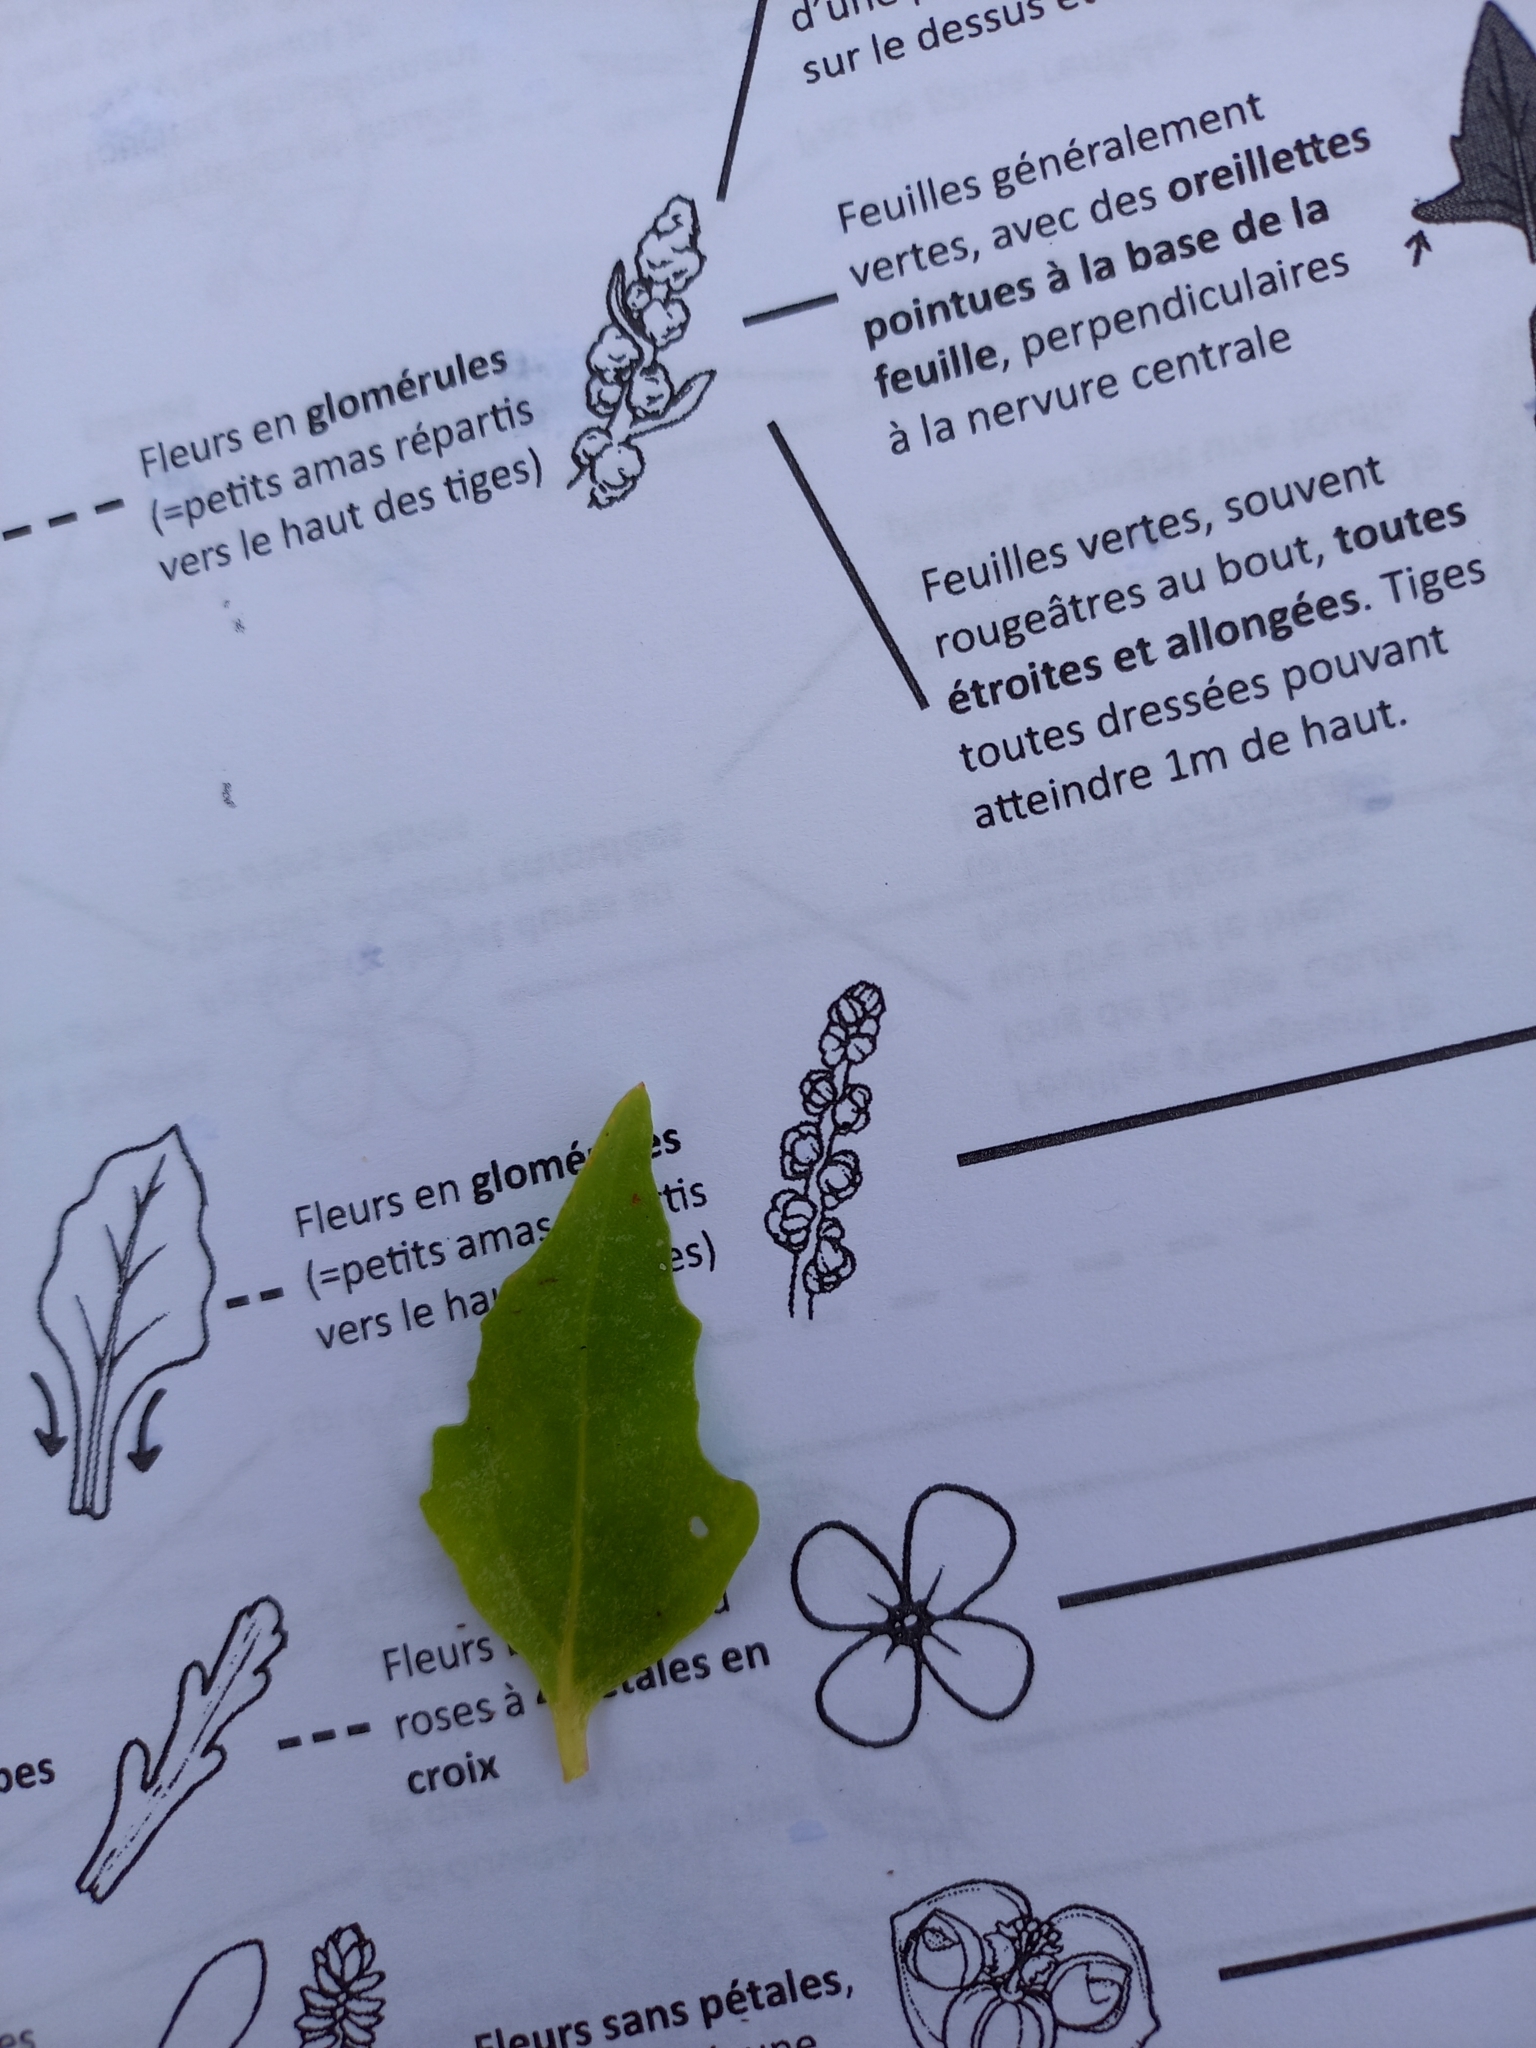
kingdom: Plantae
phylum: Tracheophyta
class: Magnoliopsida
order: Caryophyllales
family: Amaranthaceae
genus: Atriplex
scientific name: Atriplex laciniata
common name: Frosted orache
